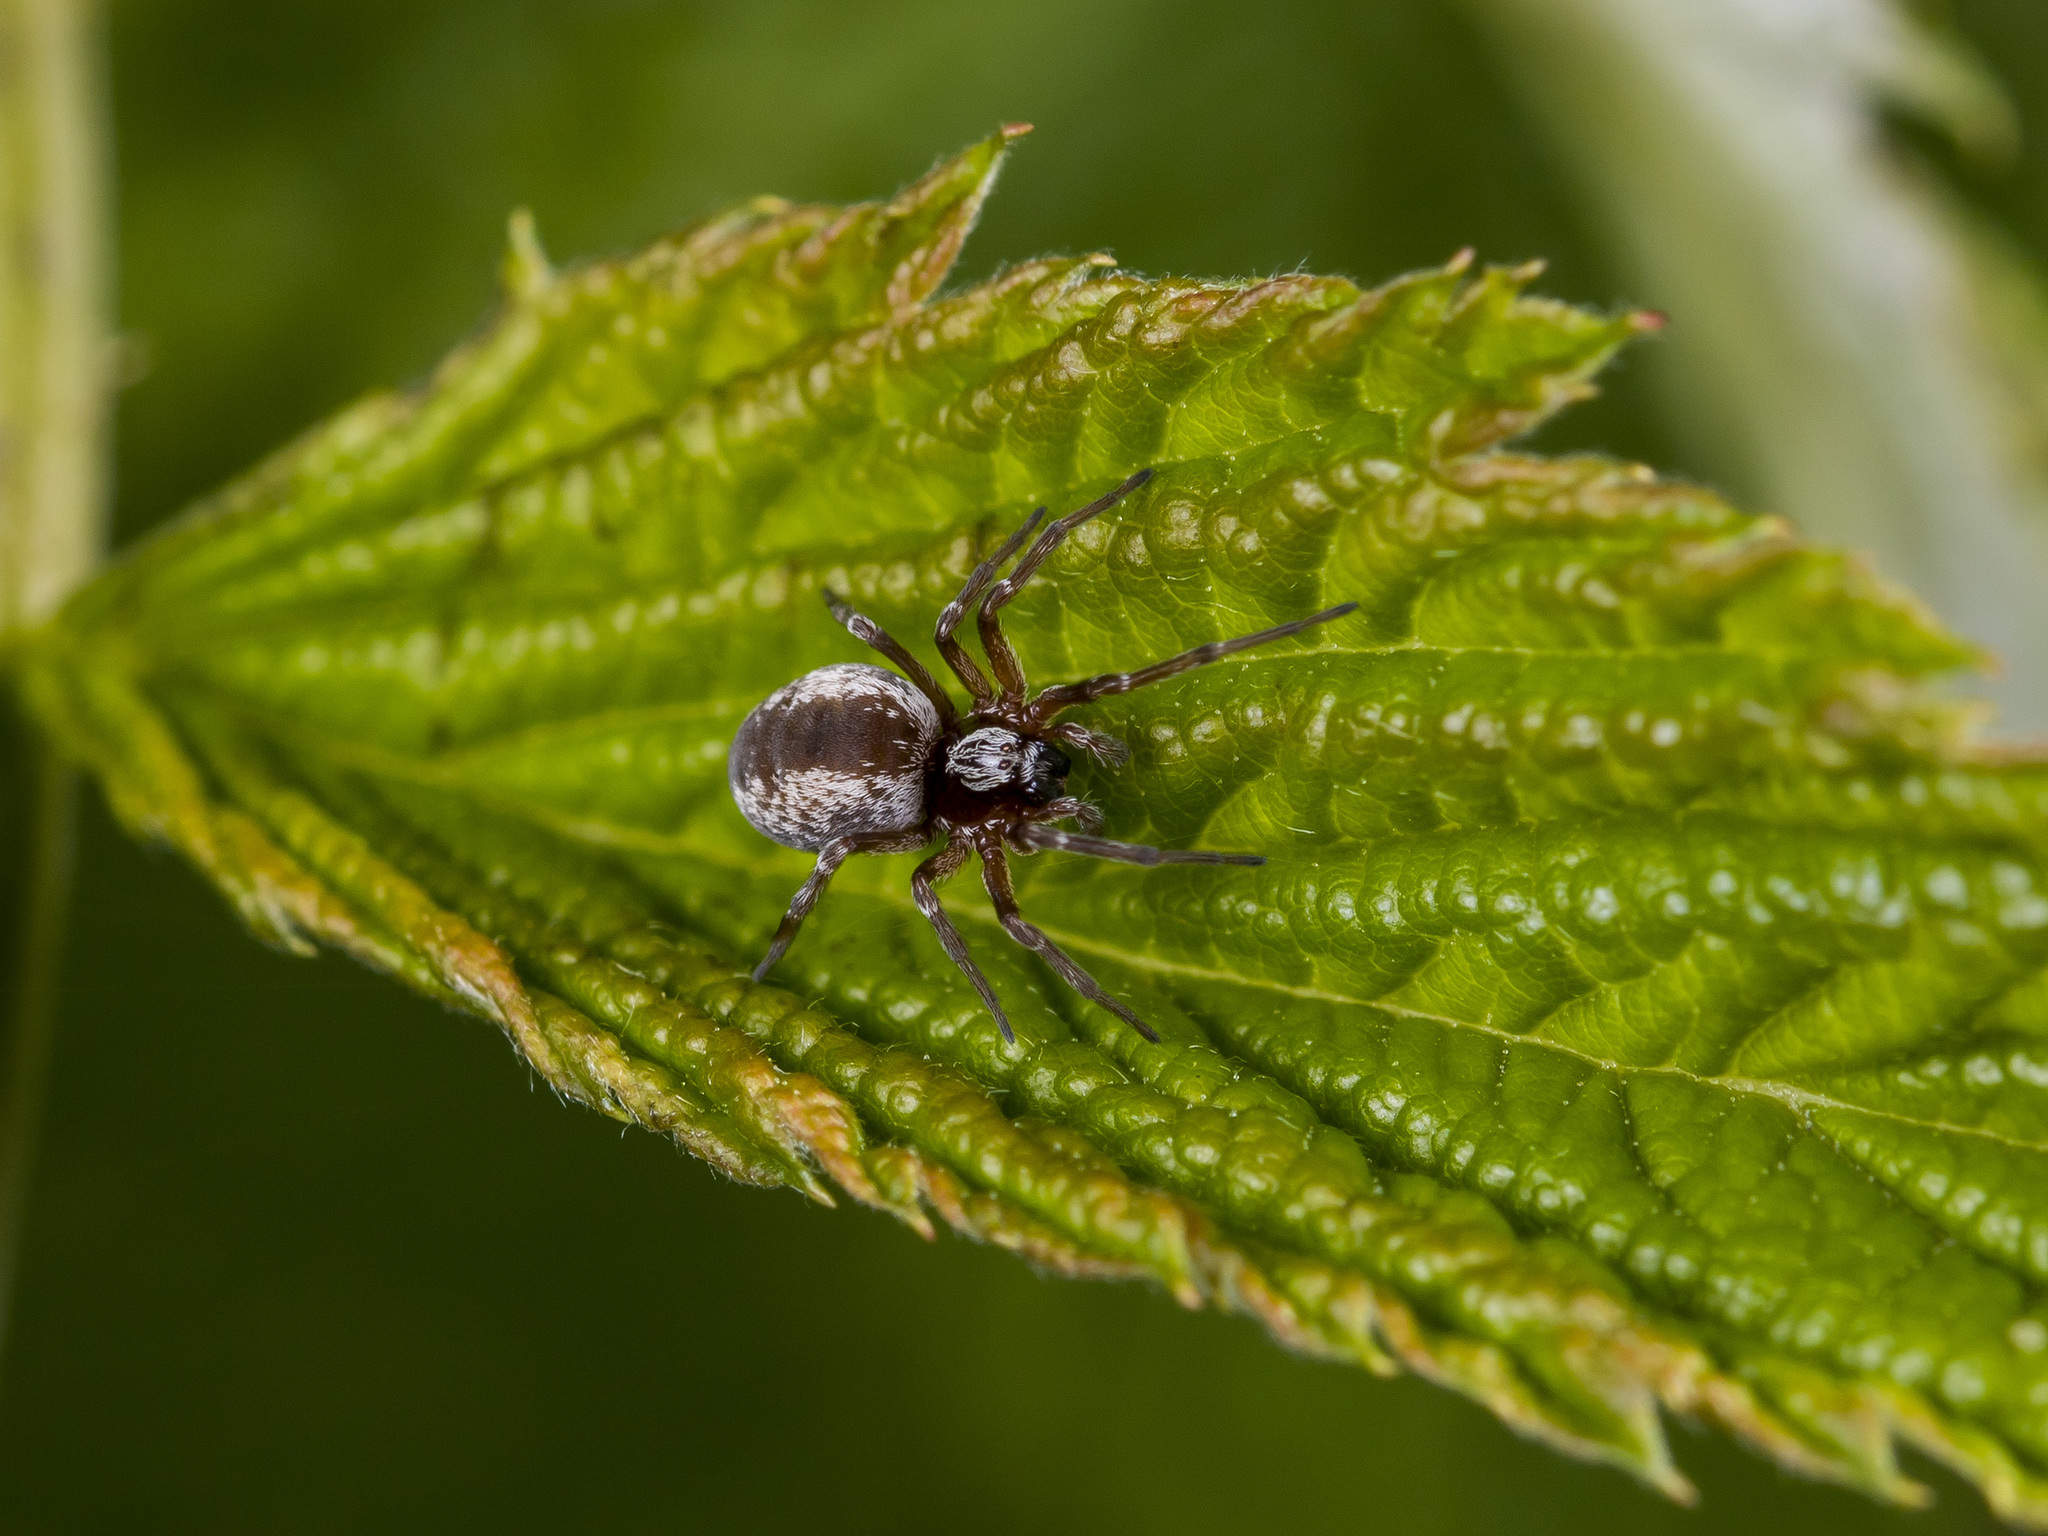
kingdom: Animalia
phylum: Arthropoda
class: Arachnida
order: Araneae
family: Dictynidae
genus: Dictyna
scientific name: Dictyna arundinacea
